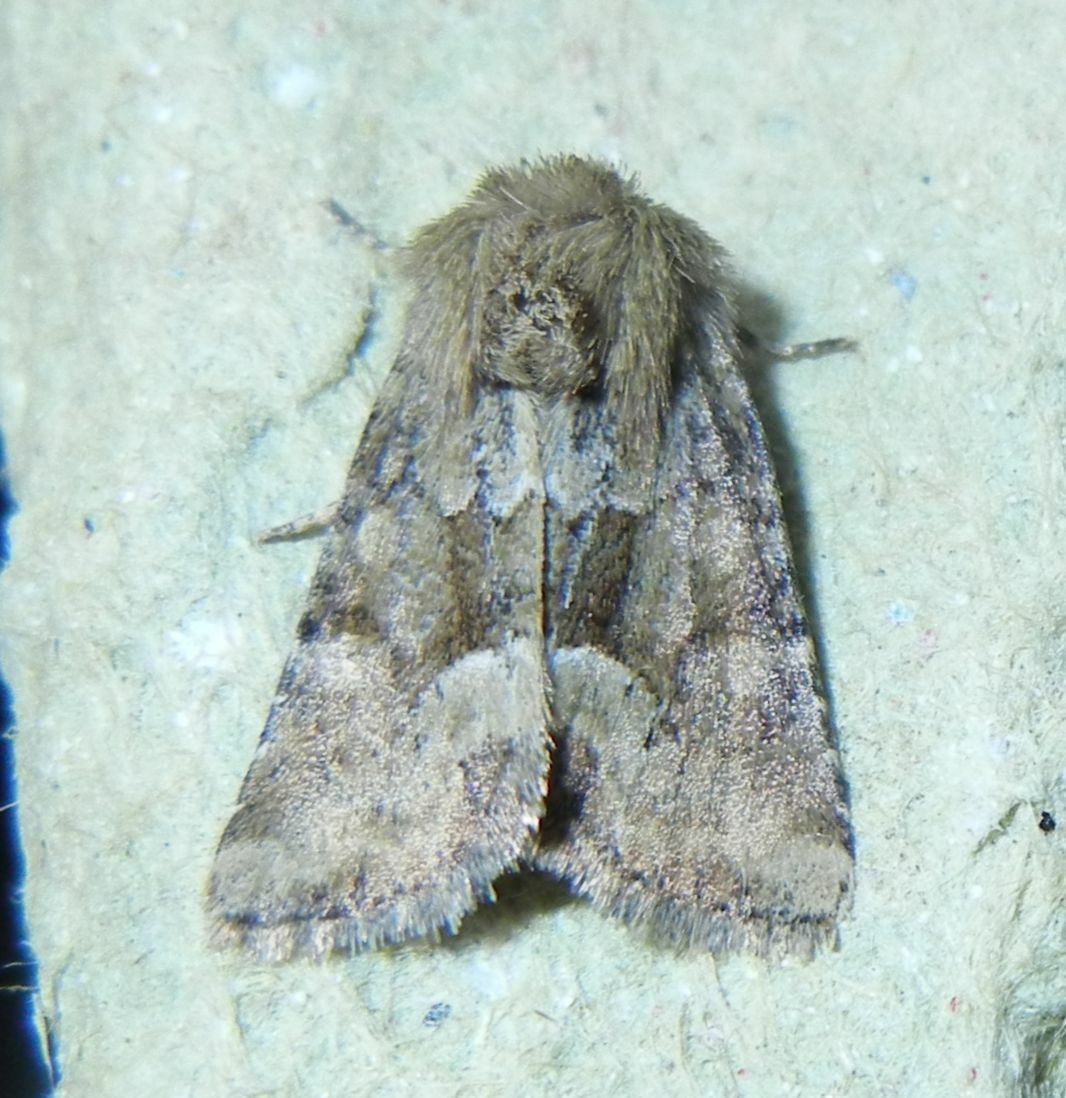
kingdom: Animalia
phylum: Arthropoda
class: Insecta
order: Lepidoptera
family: Noctuidae
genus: Oligia
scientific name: Oligia fasciuncula
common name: Middle-barred minor
